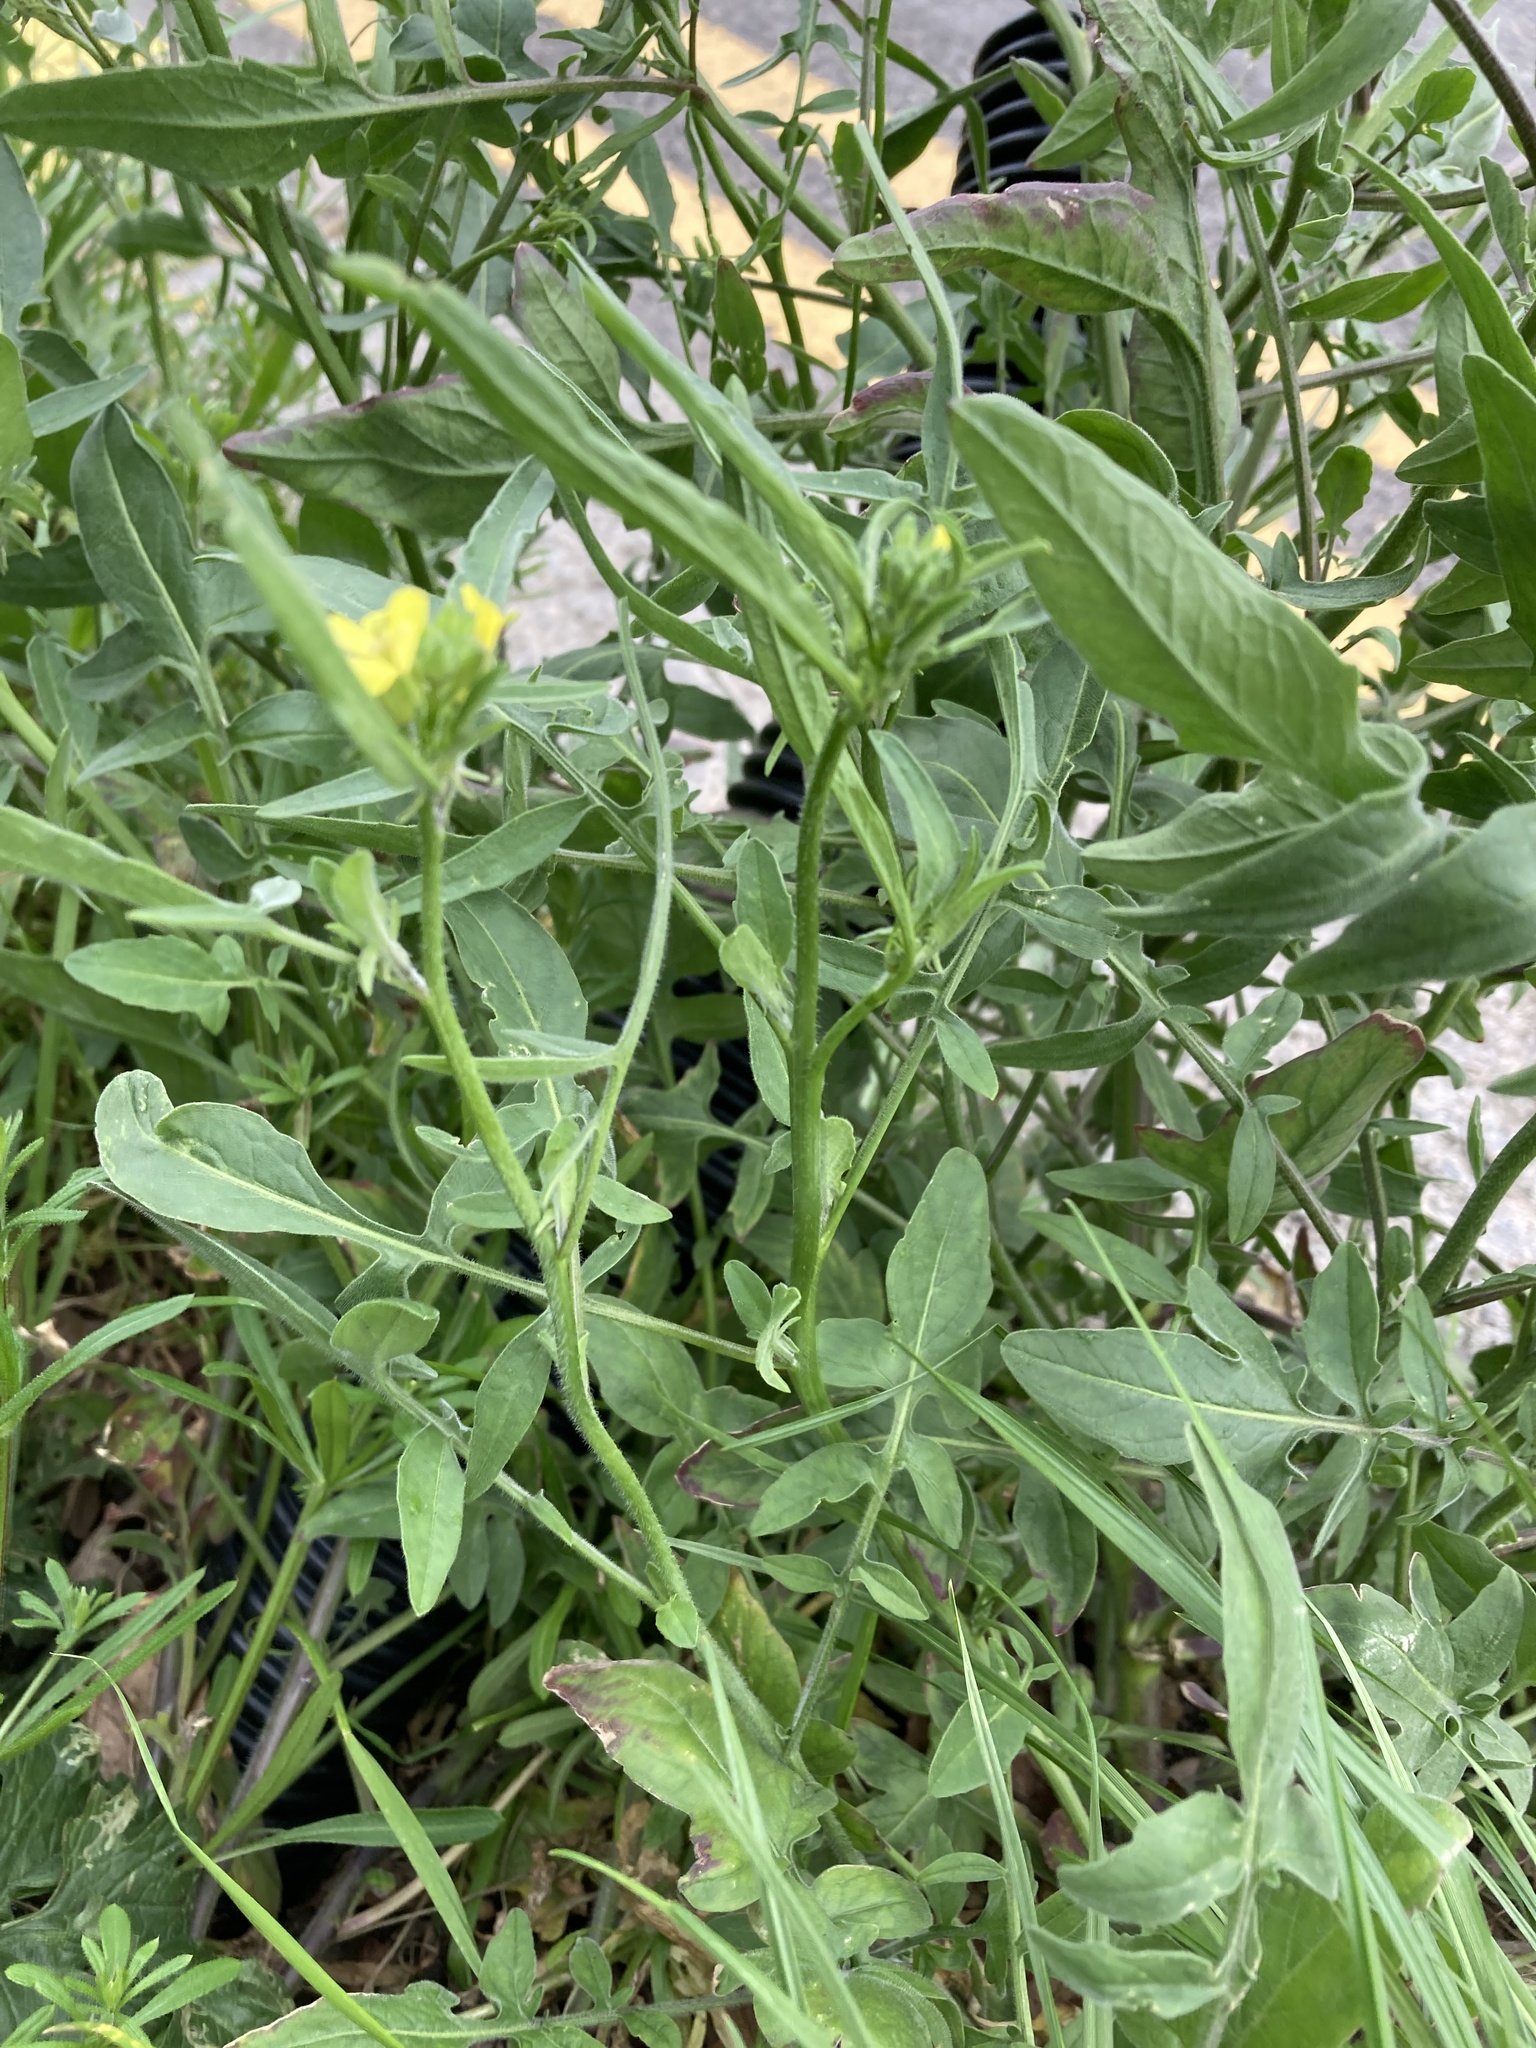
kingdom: Plantae
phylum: Tracheophyta
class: Magnoliopsida
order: Brassicales
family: Brassicaceae
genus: Sisymbrium
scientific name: Sisymbrium orientale
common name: Eastern rocket
